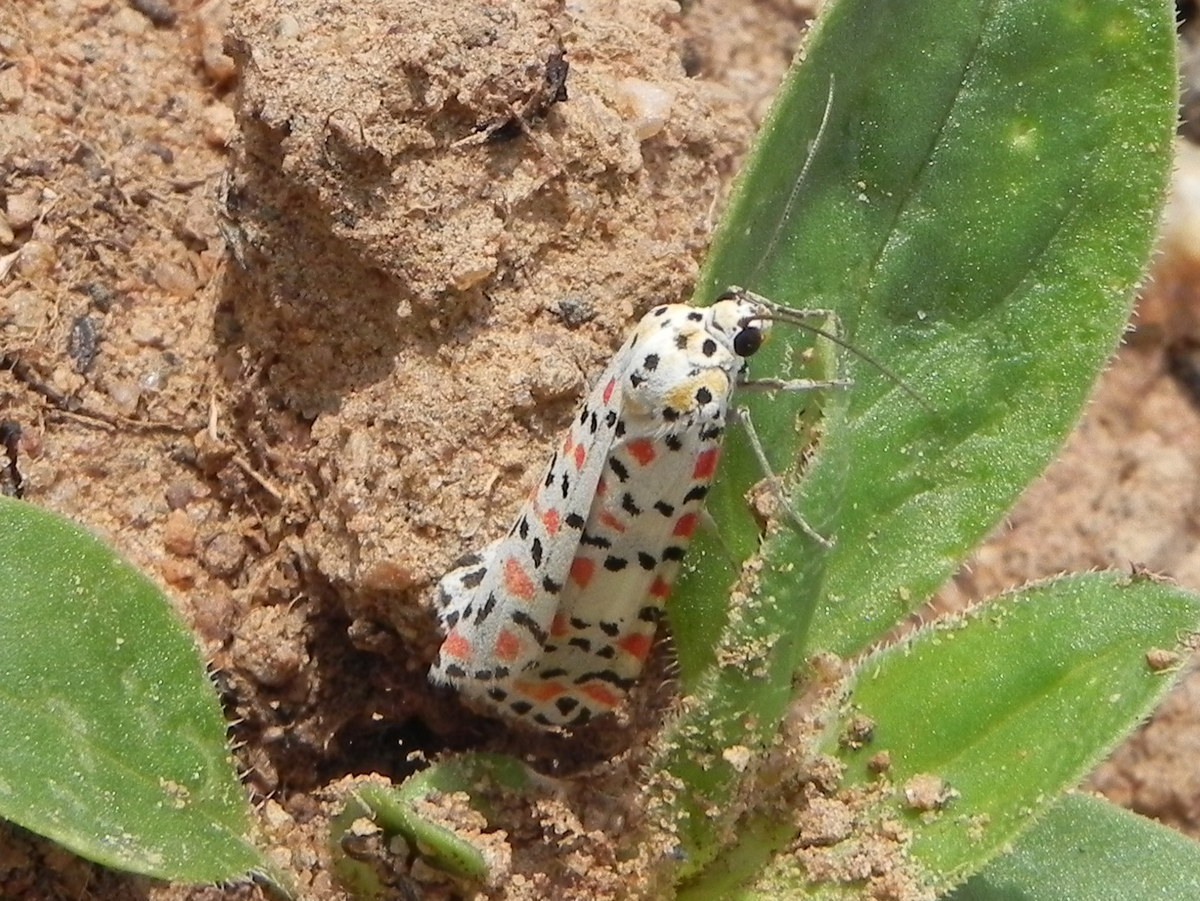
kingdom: Animalia
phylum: Arthropoda
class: Insecta
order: Lepidoptera
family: Erebidae
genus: Utetheisa
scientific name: Utetheisa pulchelloides
